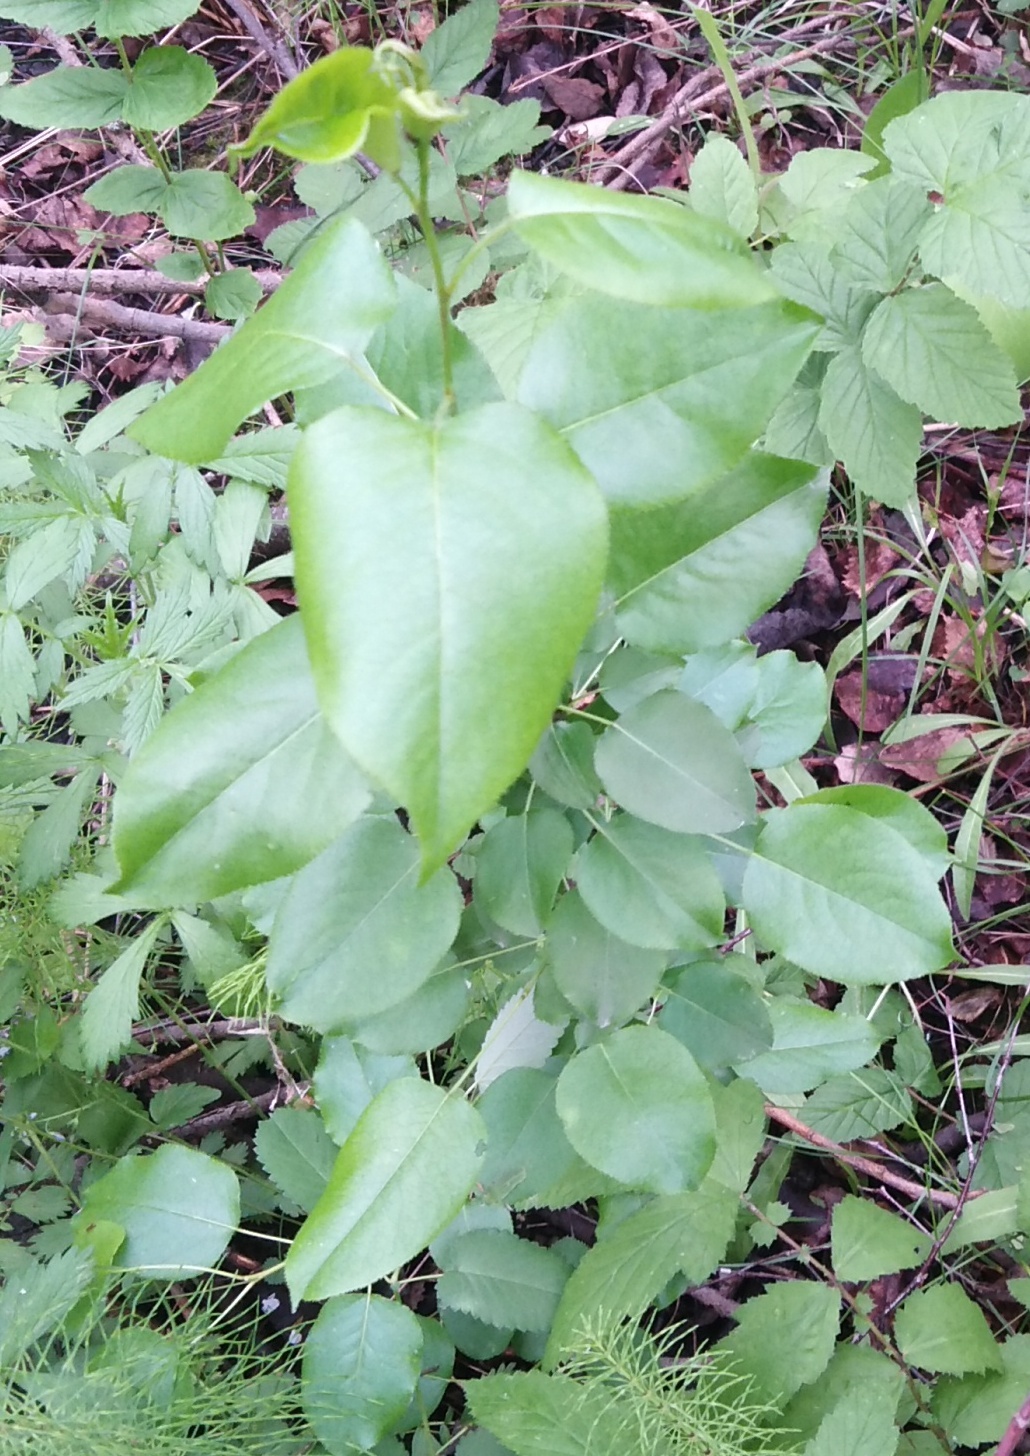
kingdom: Plantae
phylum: Tracheophyta
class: Magnoliopsida
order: Rosales
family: Rosaceae
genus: Pyrus
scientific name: Pyrus communis
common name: Pear
